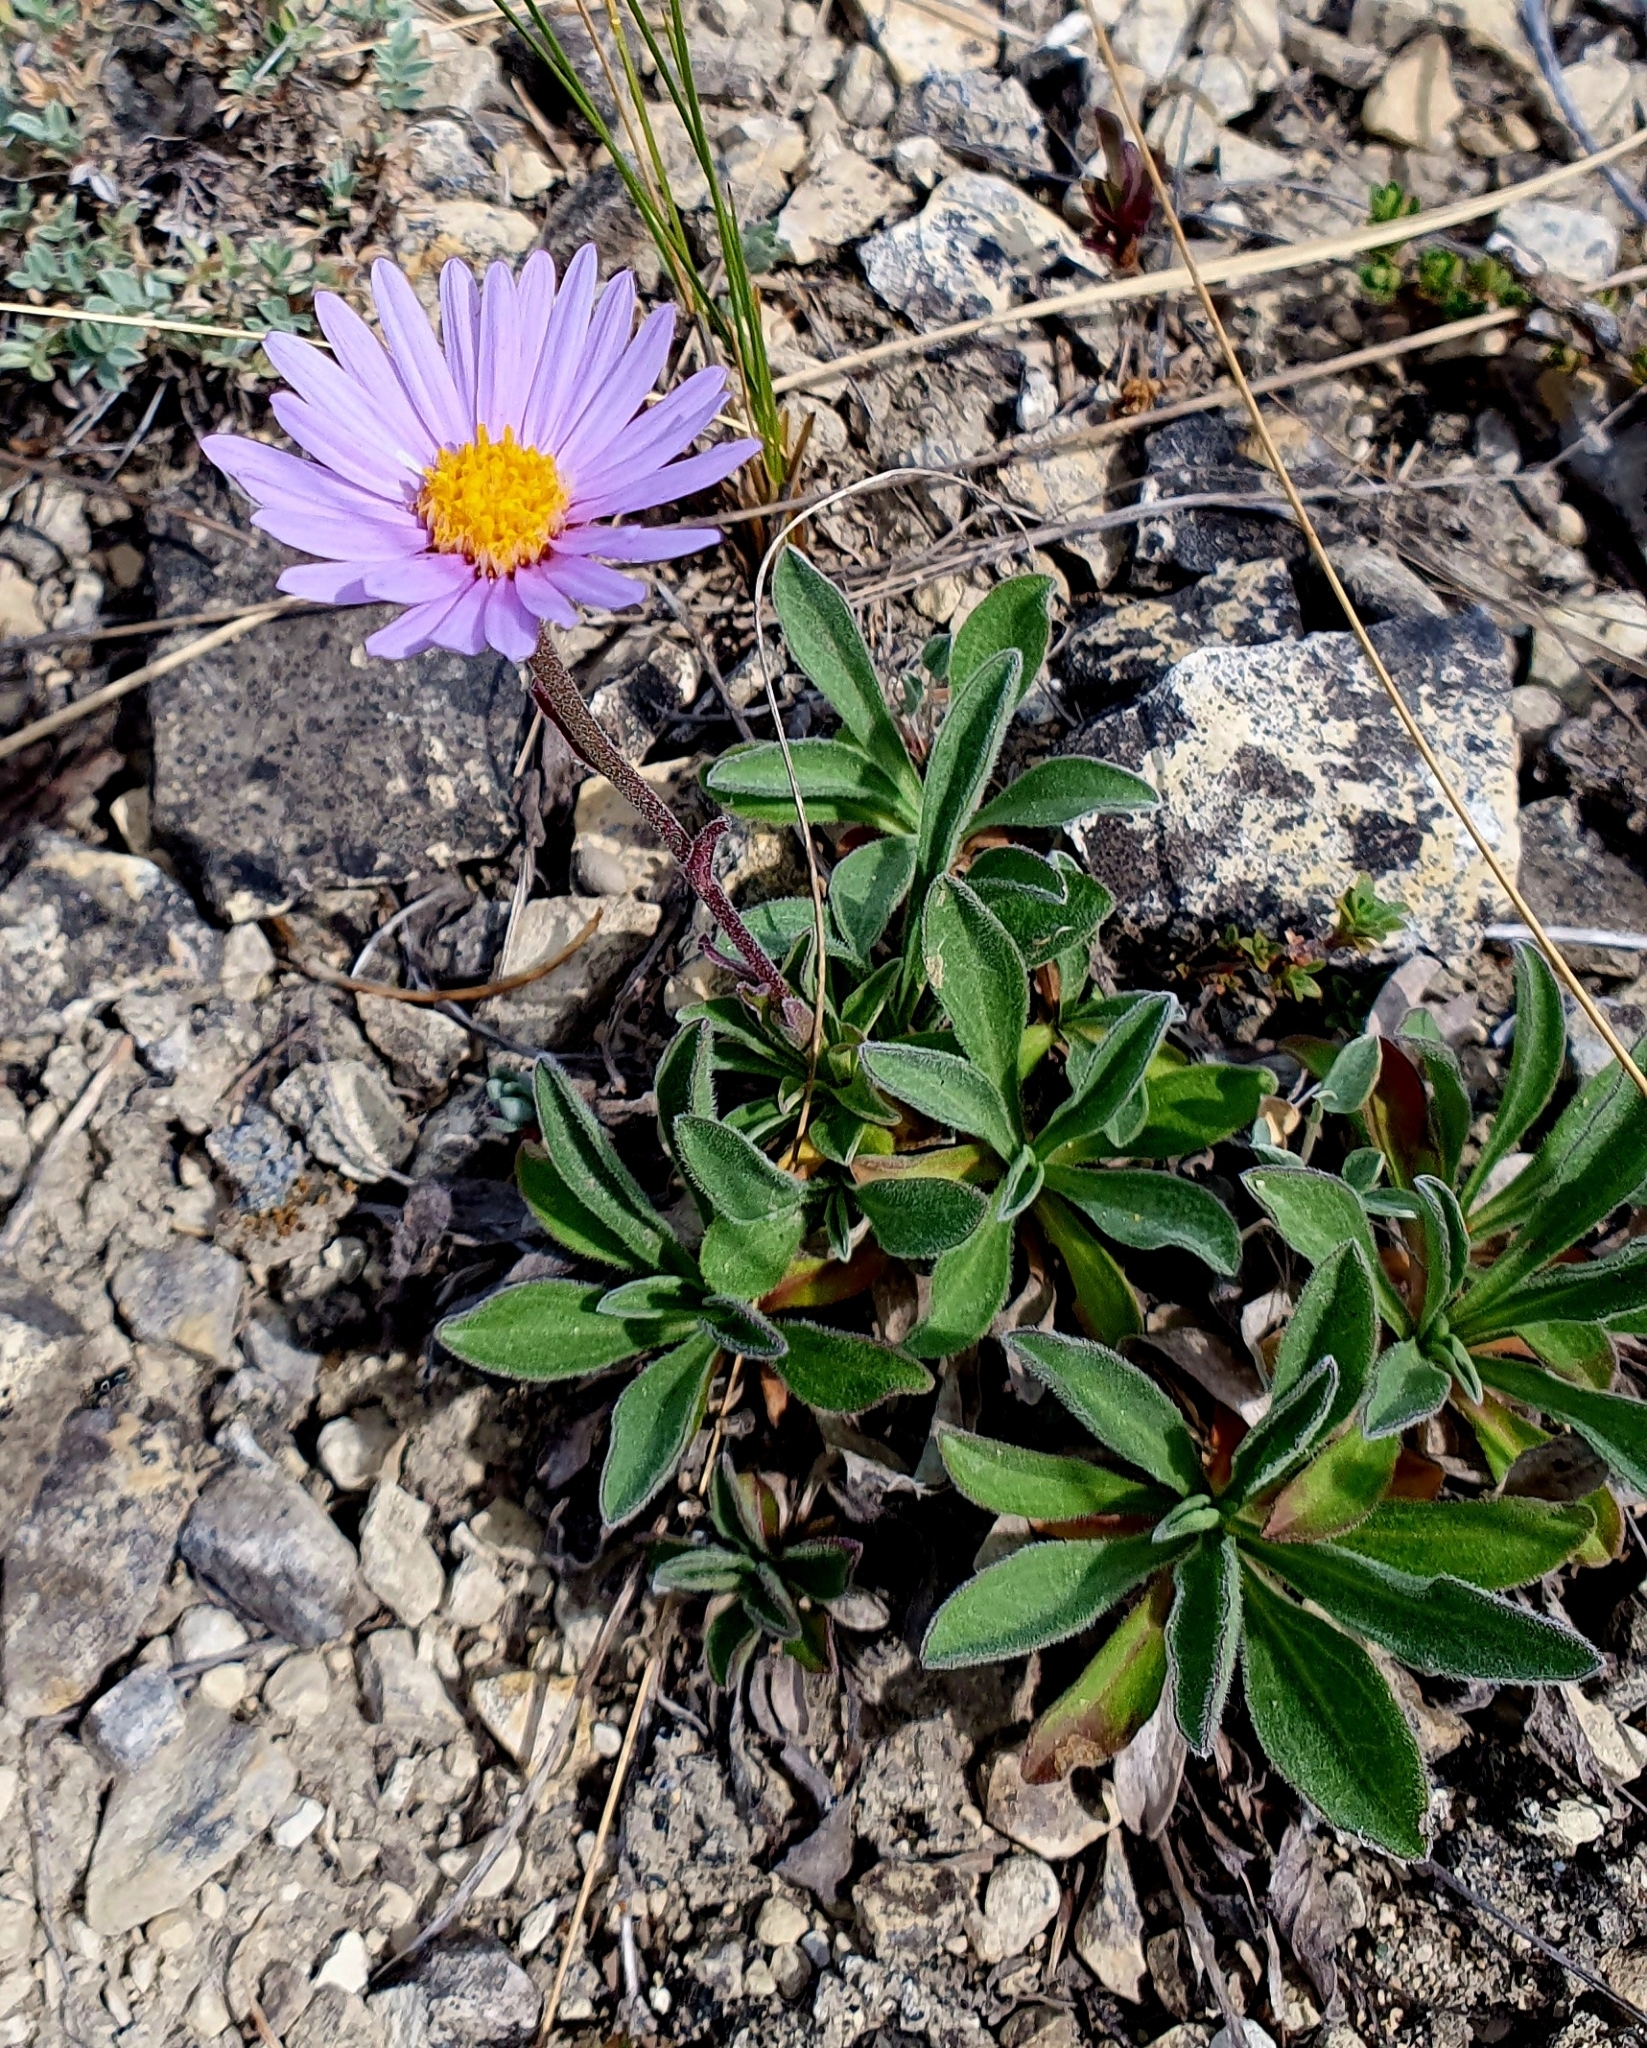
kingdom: Plantae
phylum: Tracheophyta
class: Magnoliopsida
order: Asterales
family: Asteraceae
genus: Aster
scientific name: Aster alpinus
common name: Alpine aster
